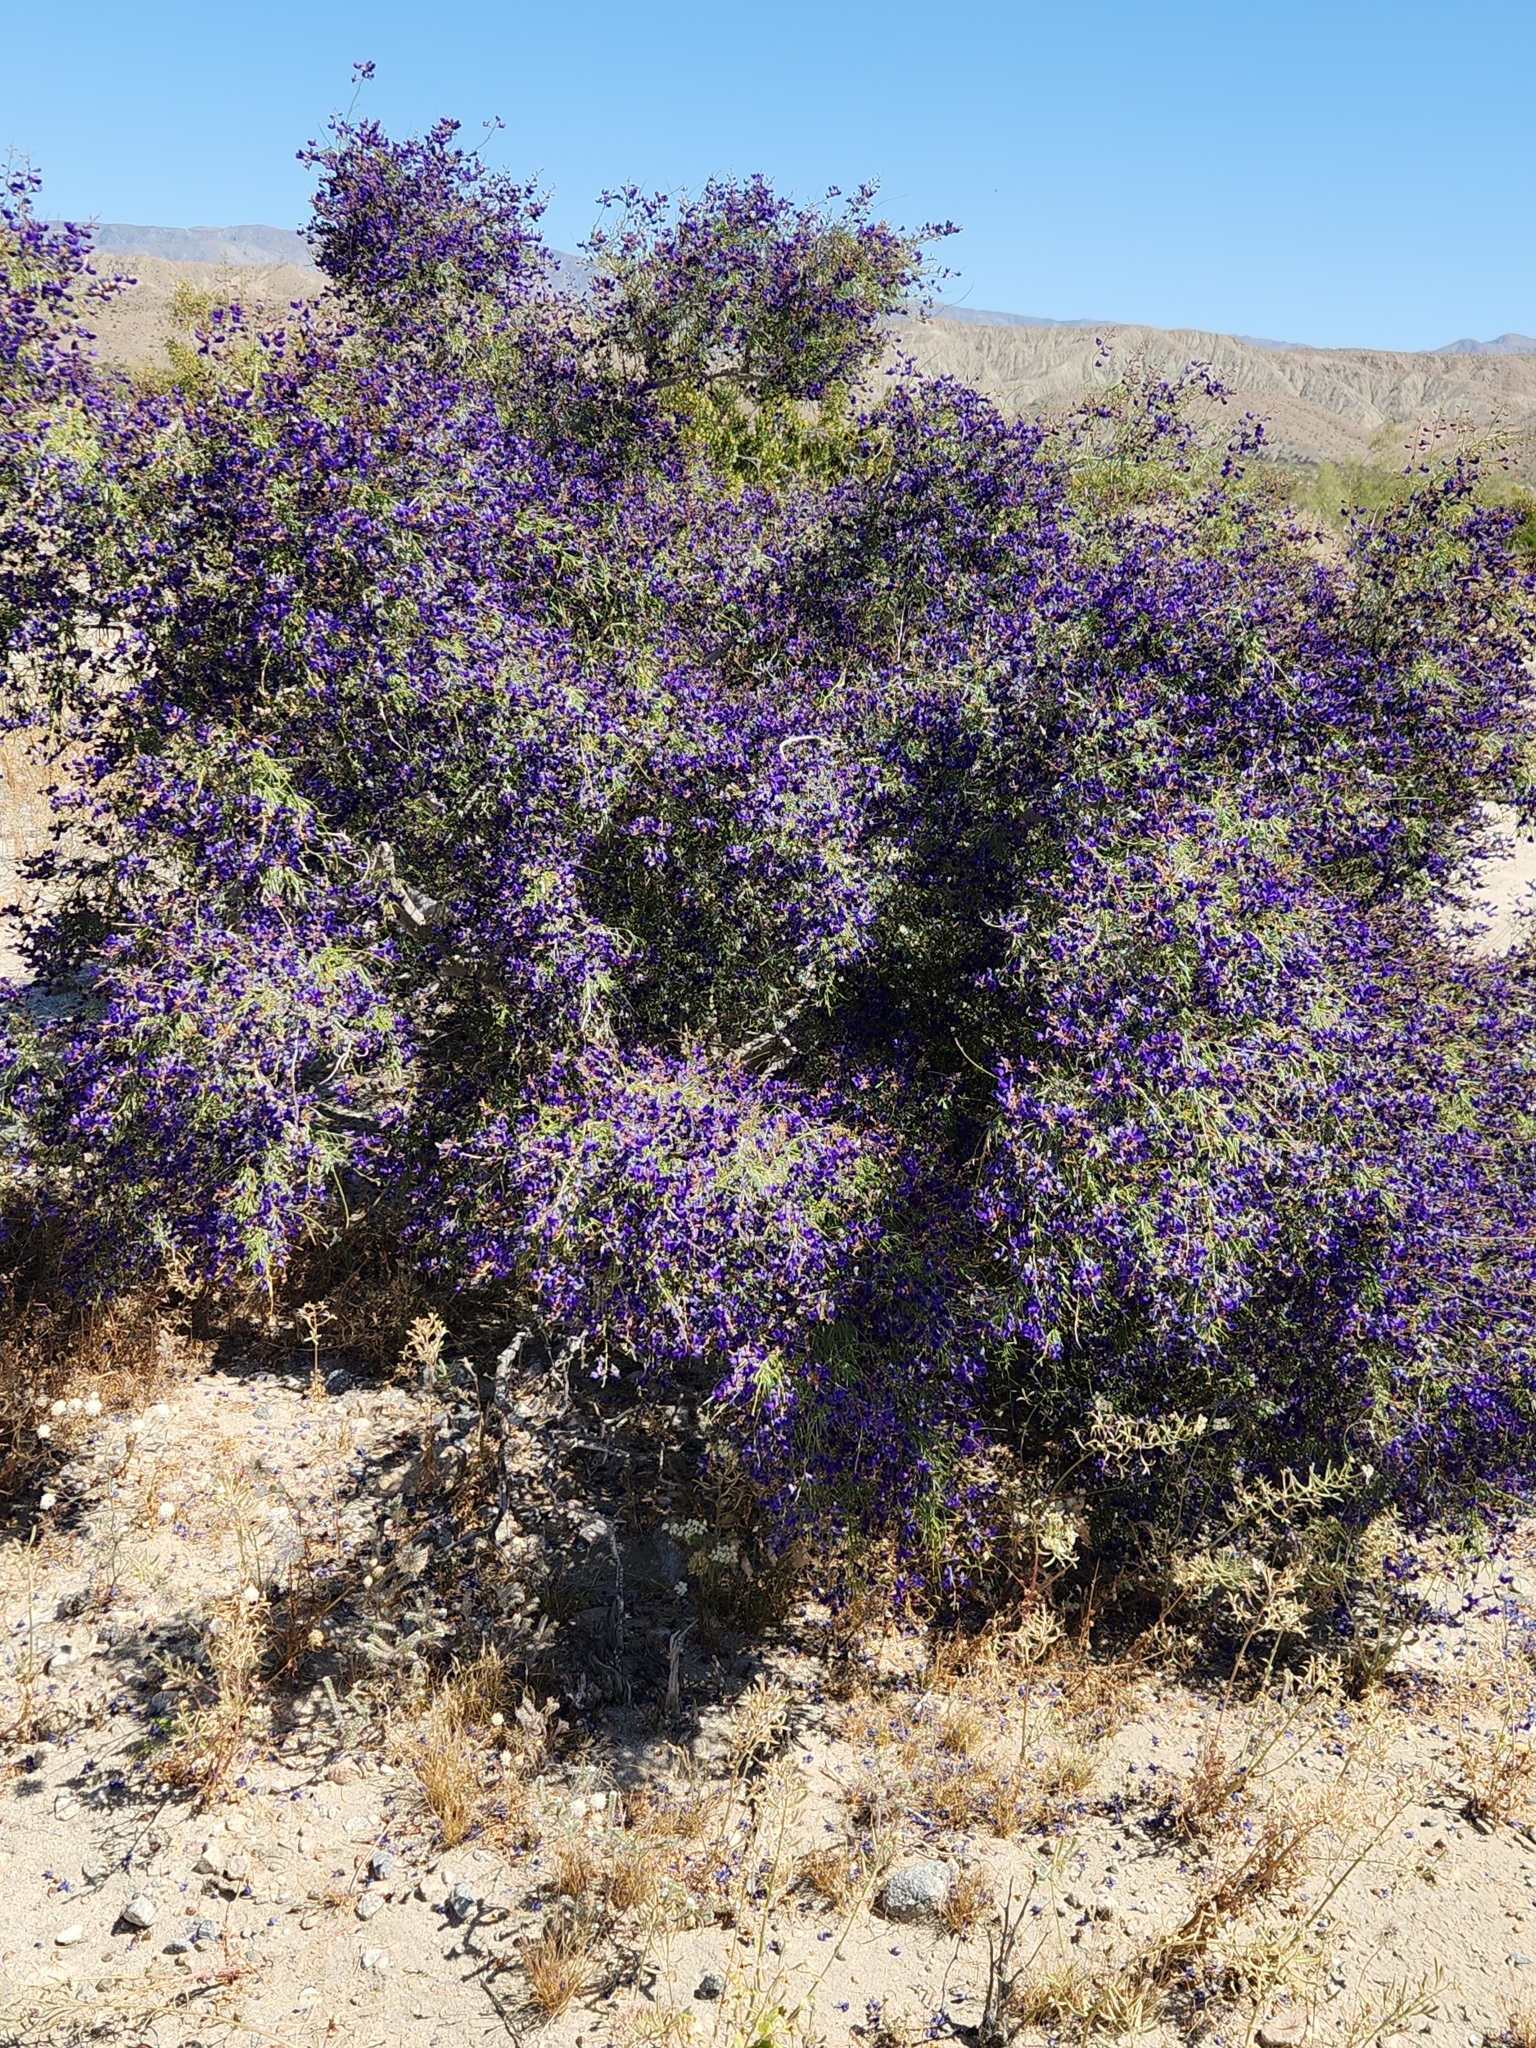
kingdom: Plantae
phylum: Tracheophyta
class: Magnoliopsida
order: Fabales
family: Fabaceae
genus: Psorothamnus
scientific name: Psorothamnus schottii
